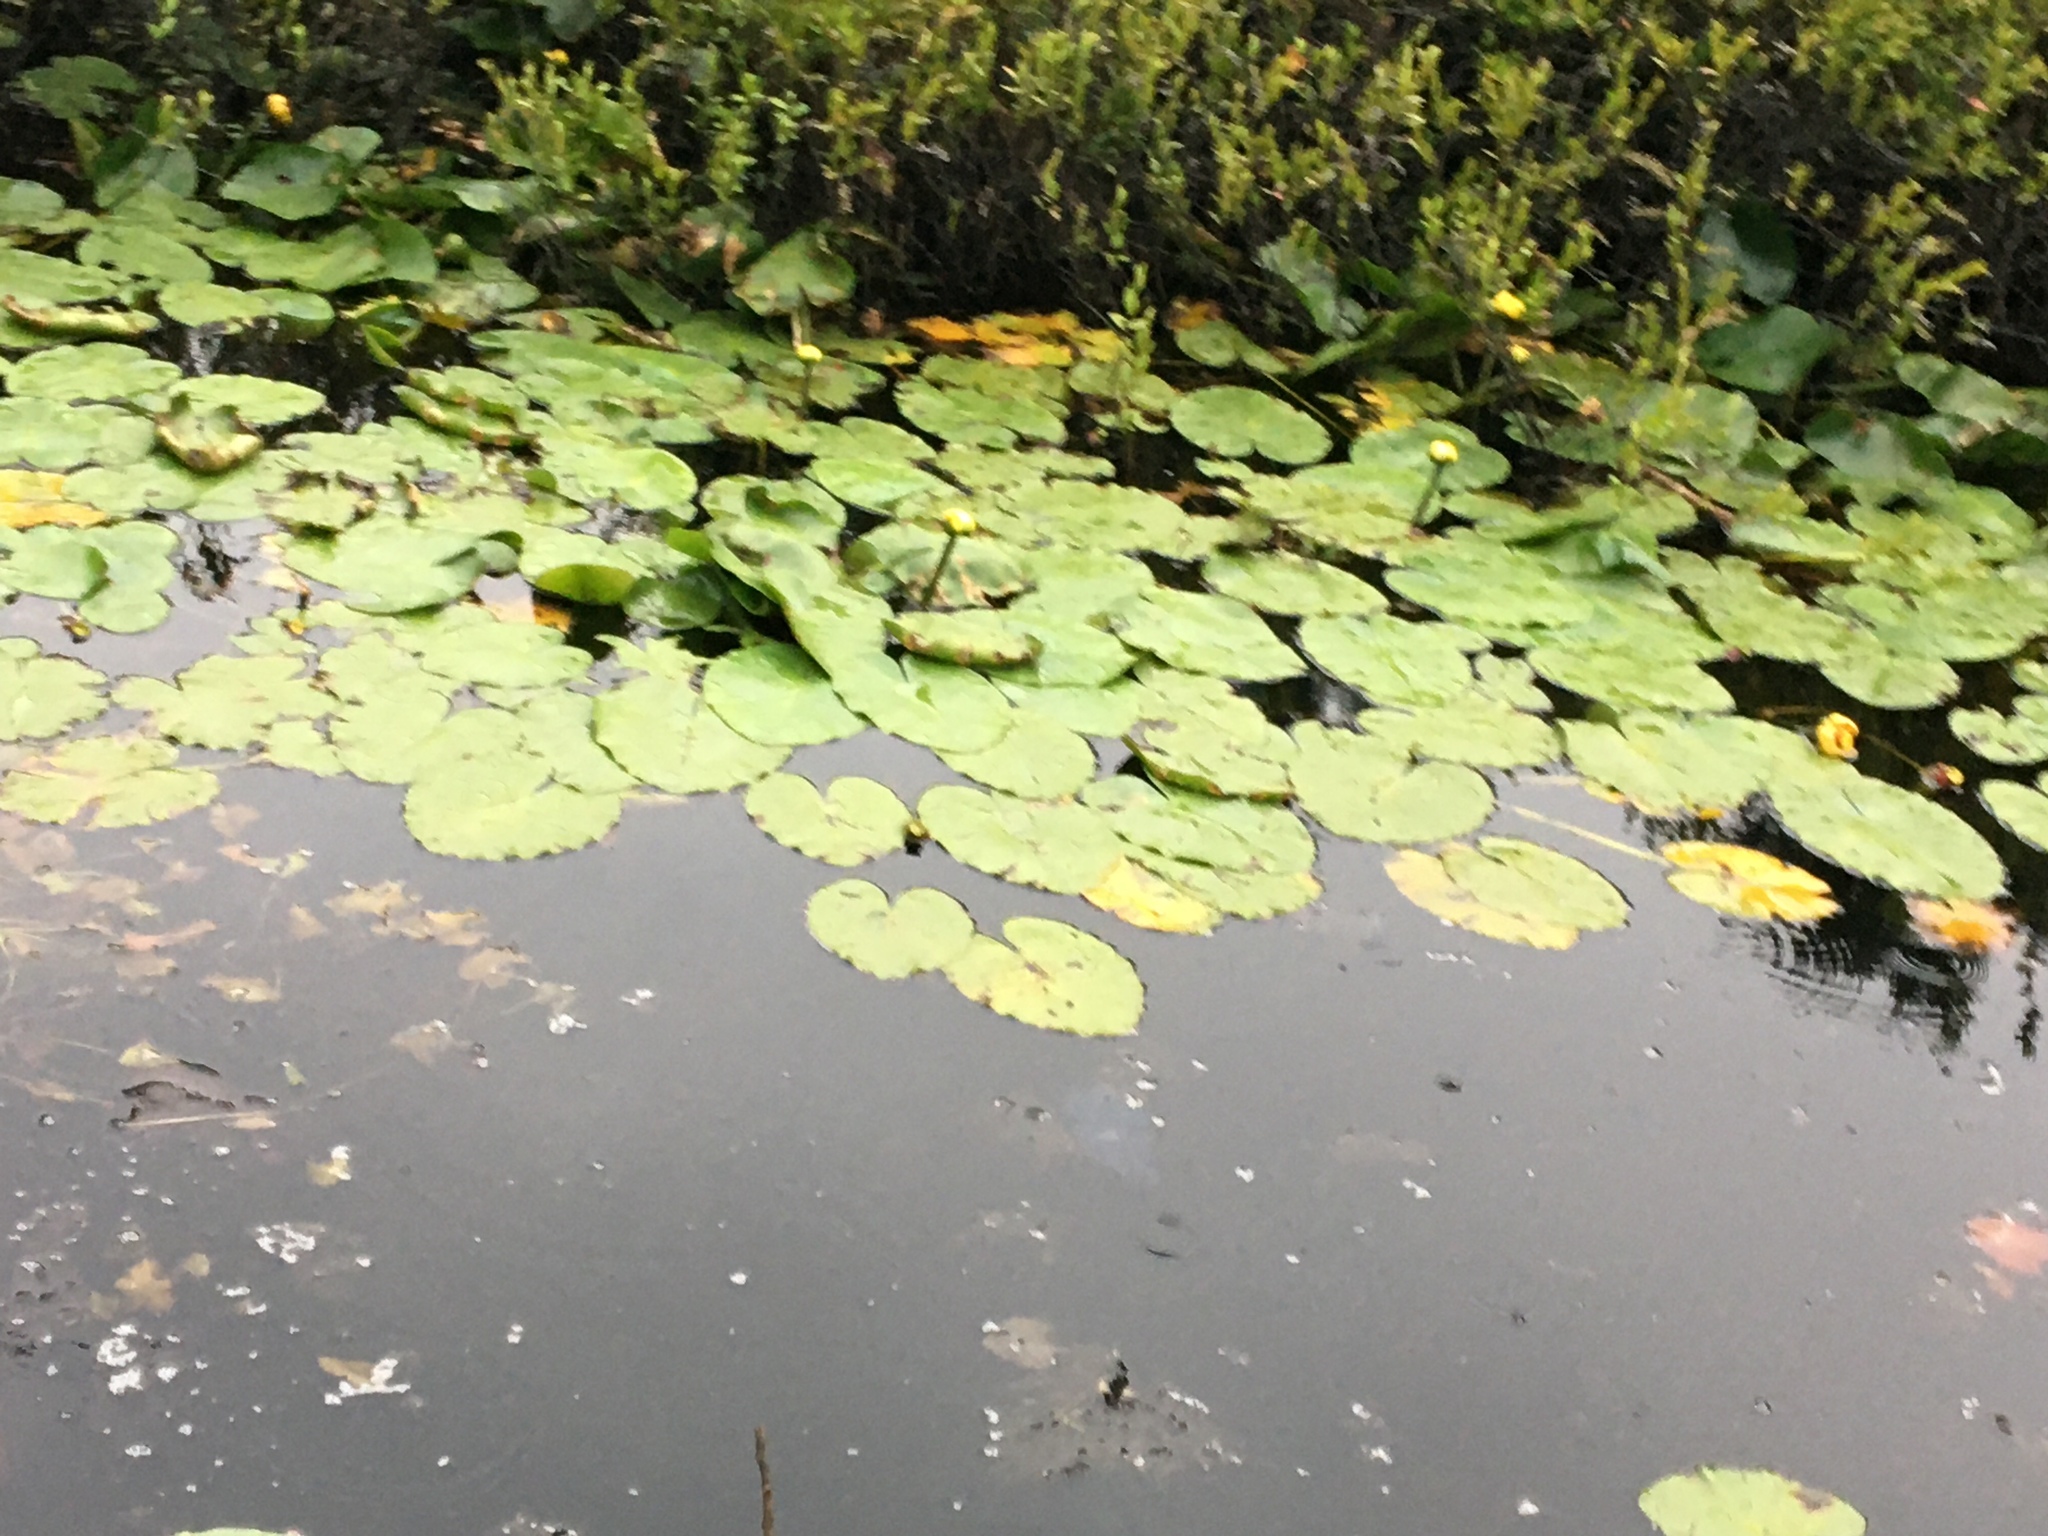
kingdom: Plantae
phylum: Tracheophyta
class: Magnoliopsida
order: Nymphaeales
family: Nymphaeaceae
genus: Nuphar
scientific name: Nuphar
